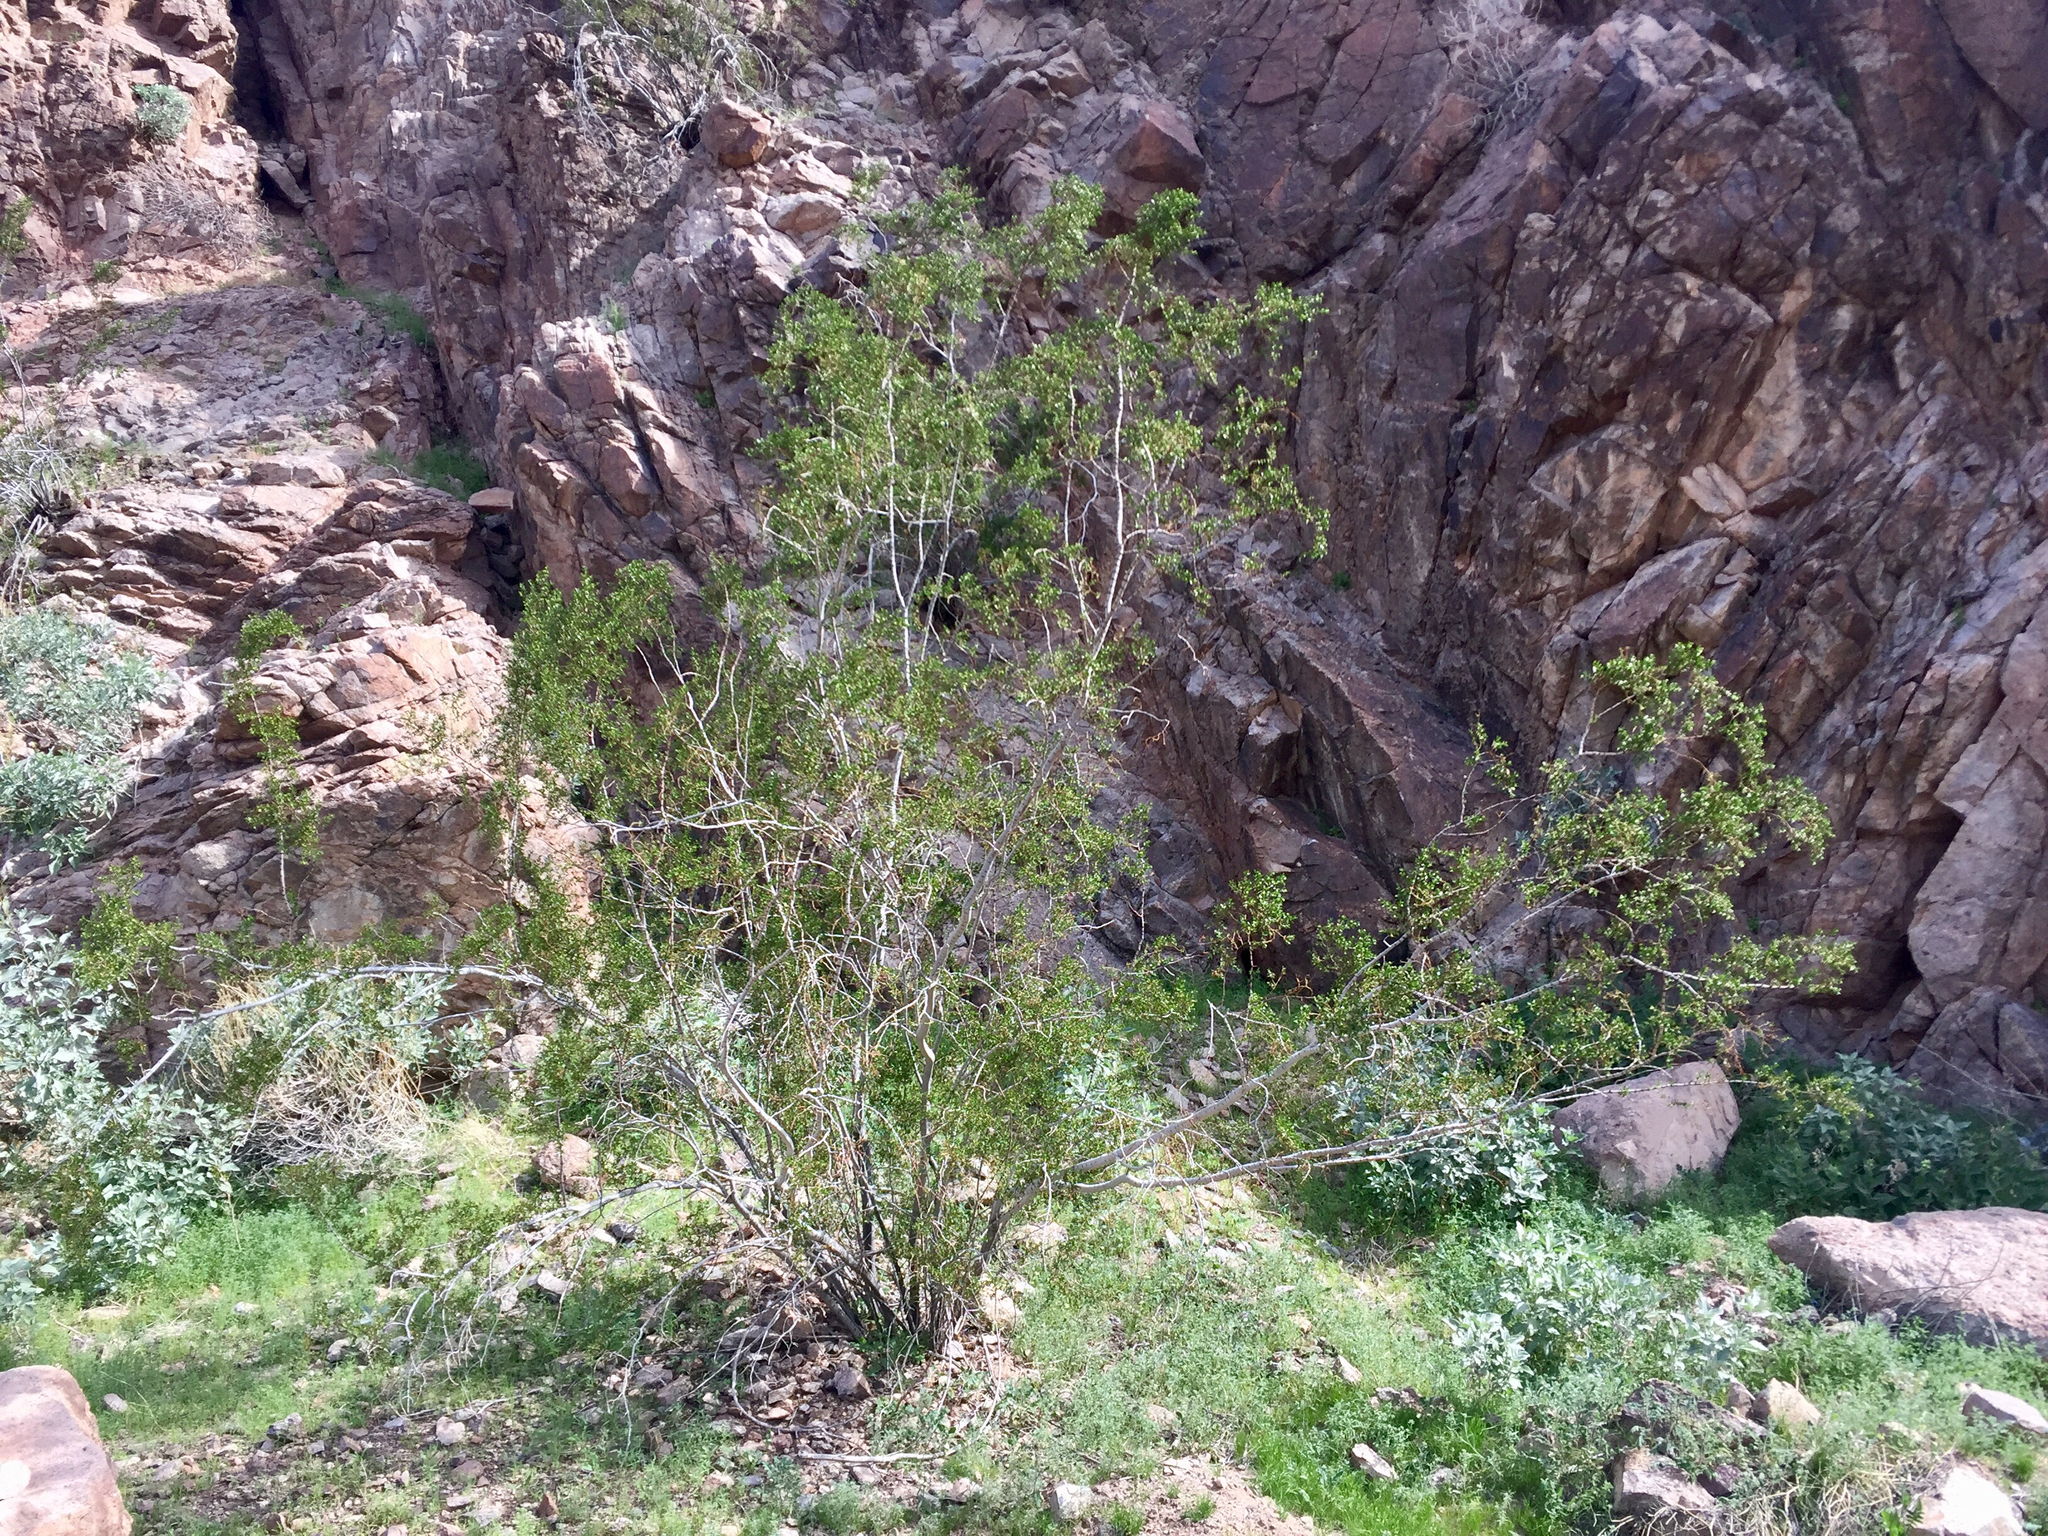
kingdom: Plantae
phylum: Tracheophyta
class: Magnoliopsida
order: Zygophyllales
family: Zygophyllaceae
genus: Larrea
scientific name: Larrea tridentata
